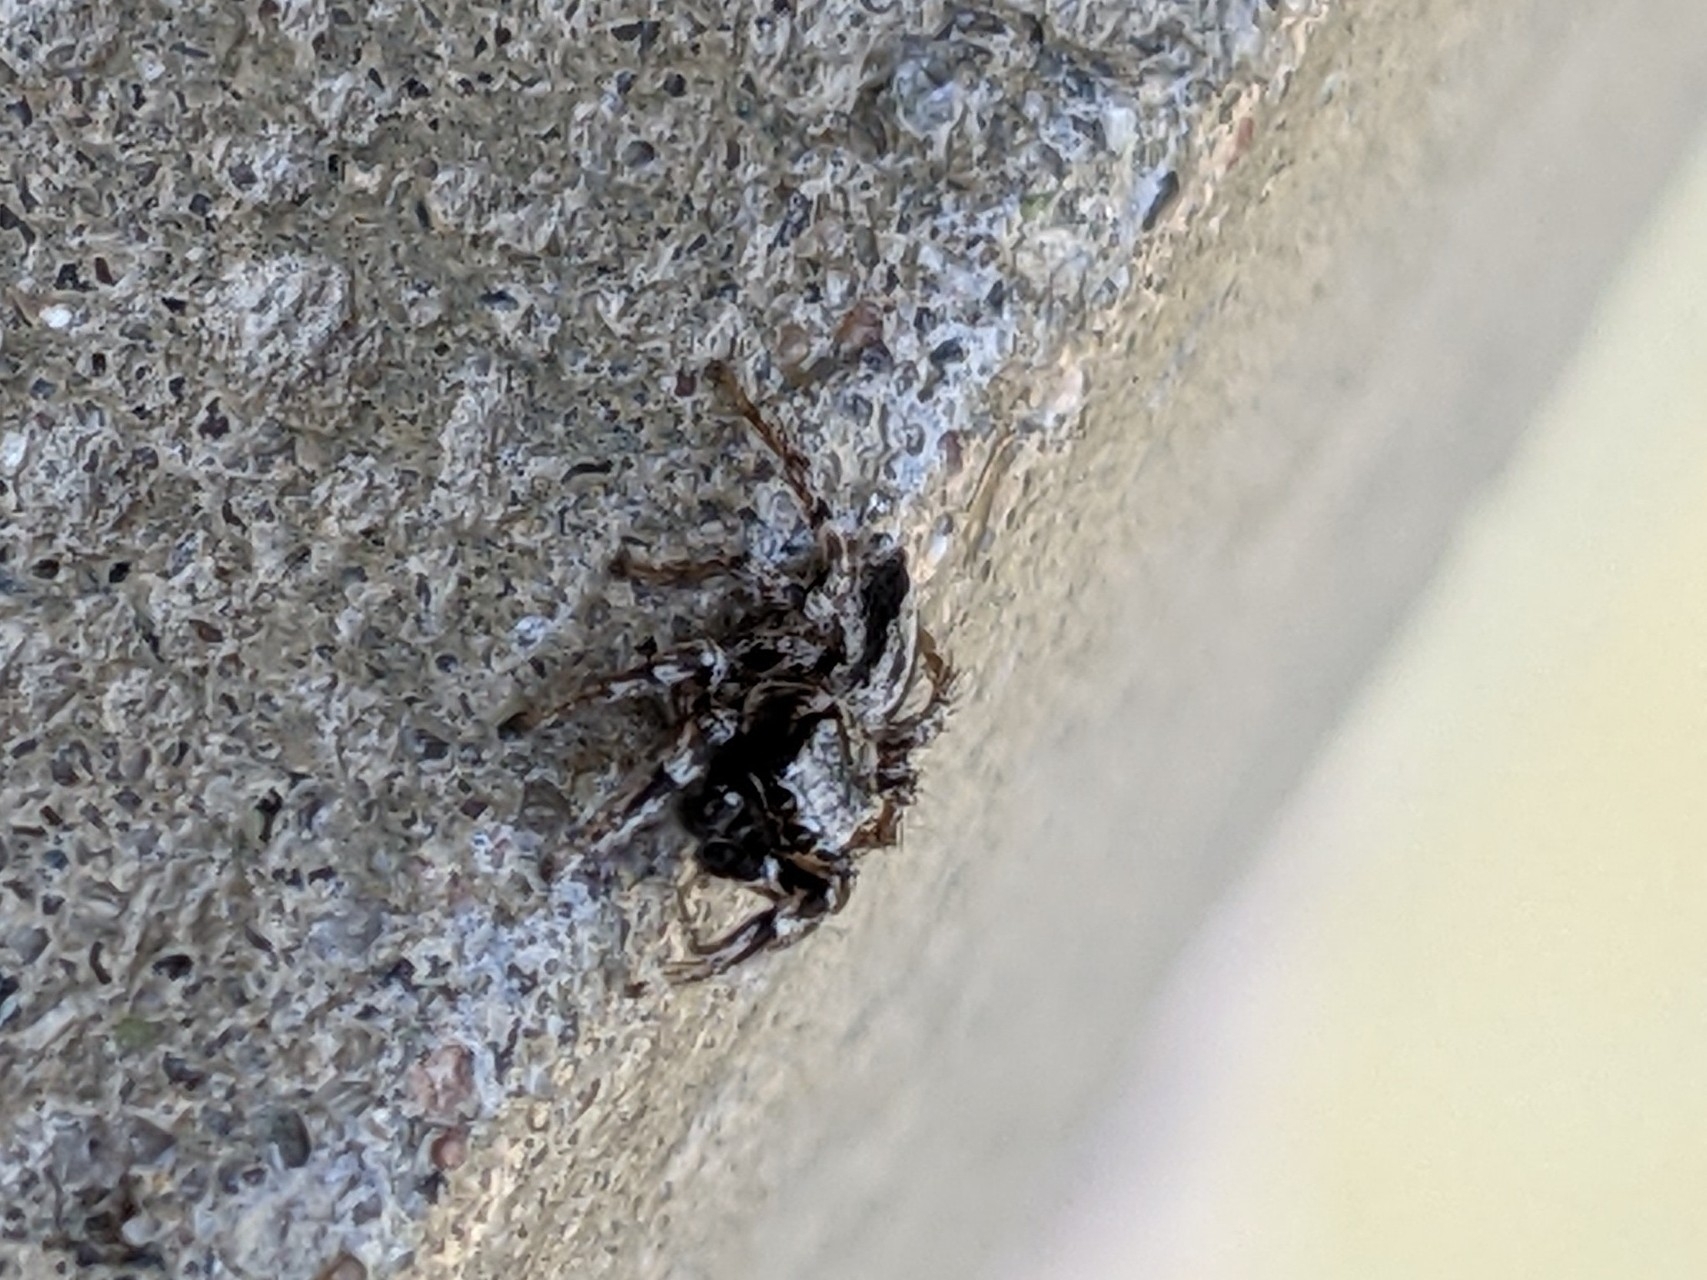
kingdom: Animalia
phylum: Arthropoda
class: Arachnida
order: Araneae
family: Salticidae
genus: Habronattus
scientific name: Habronattus sugillatus
